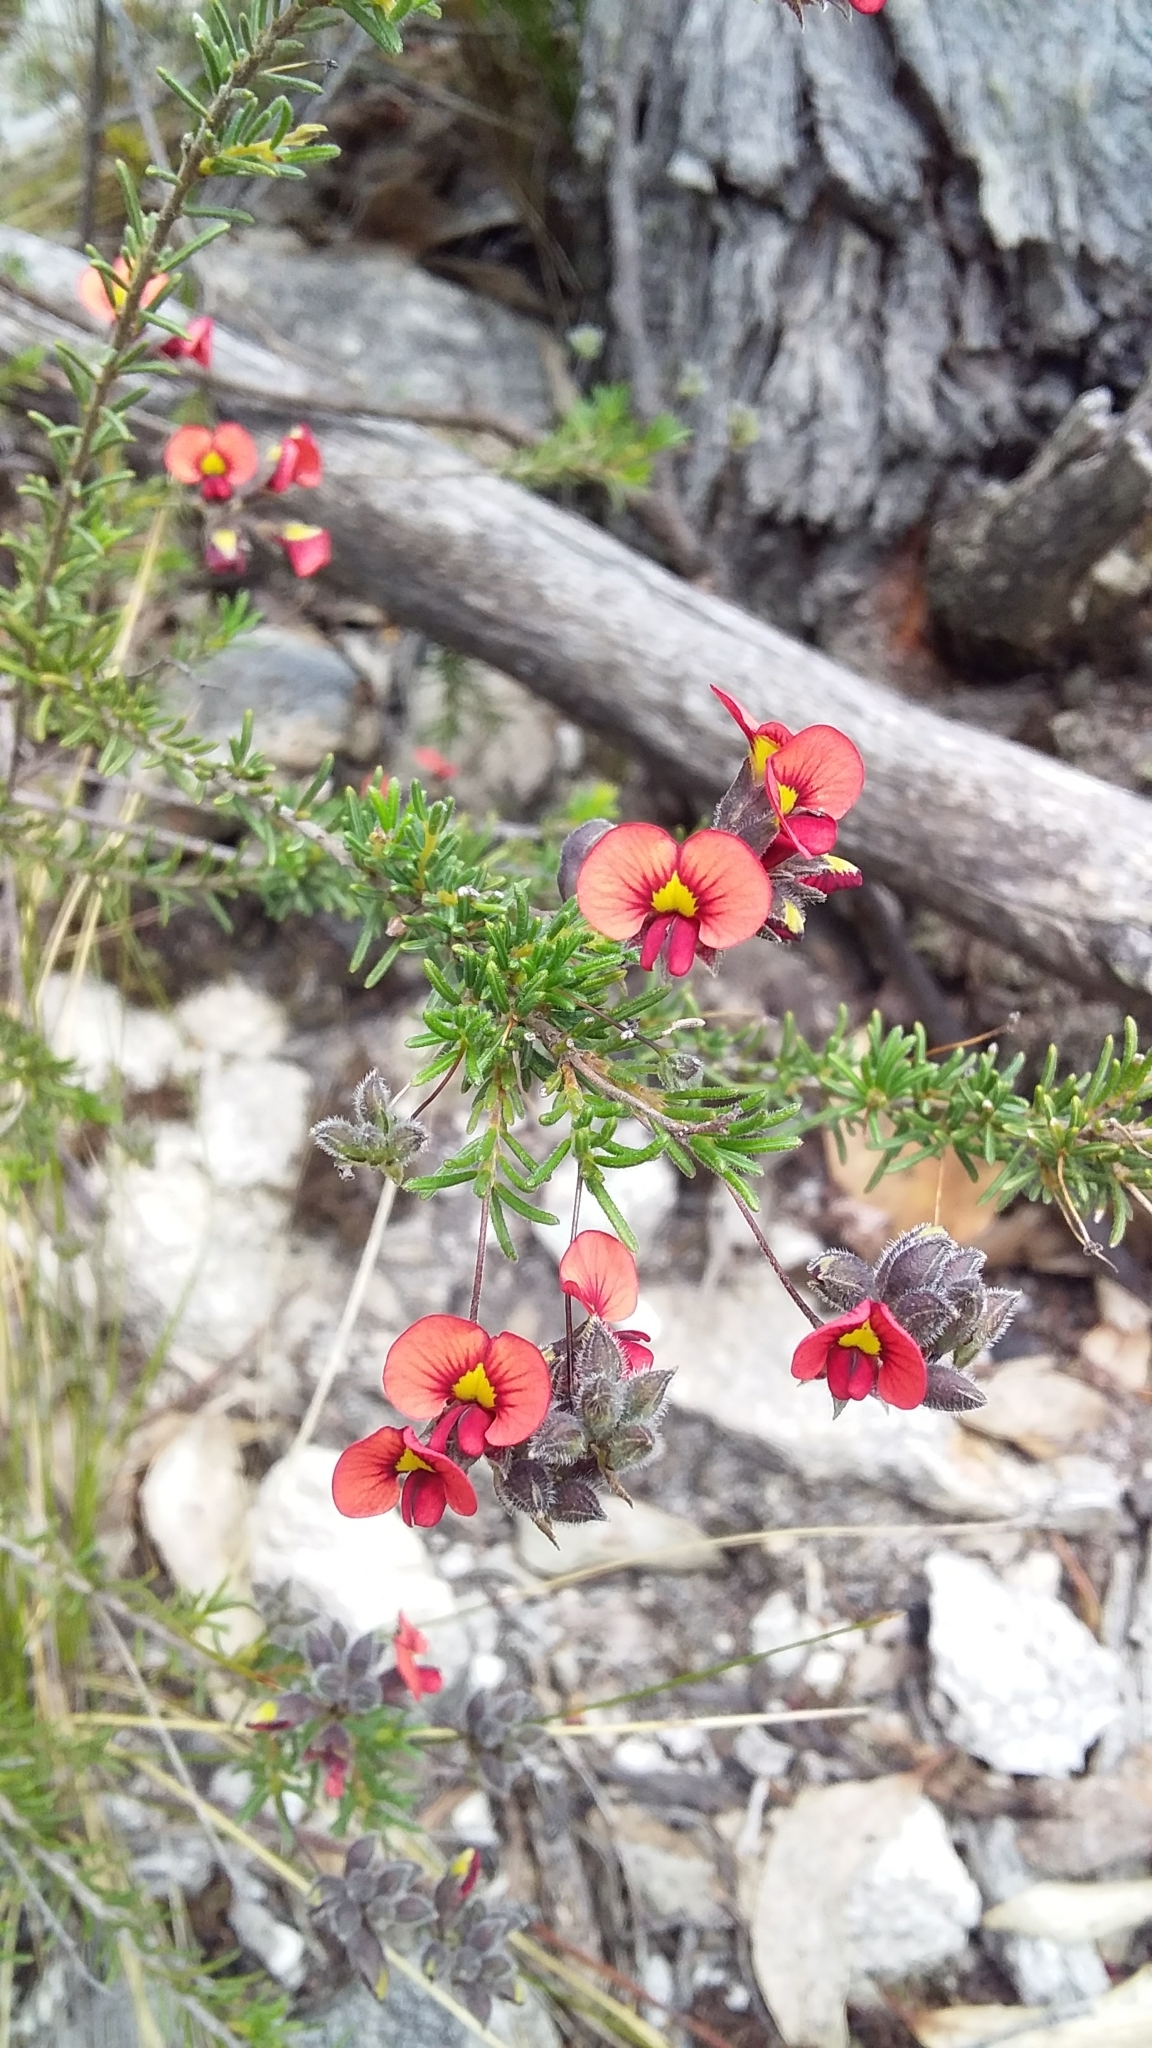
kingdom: Plantae
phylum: Tracheophyta
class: Magnoliopsida
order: Fabales
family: Fabaceae
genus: Dillwynia
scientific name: Dillwynia hispida
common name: Red parrot-pea
